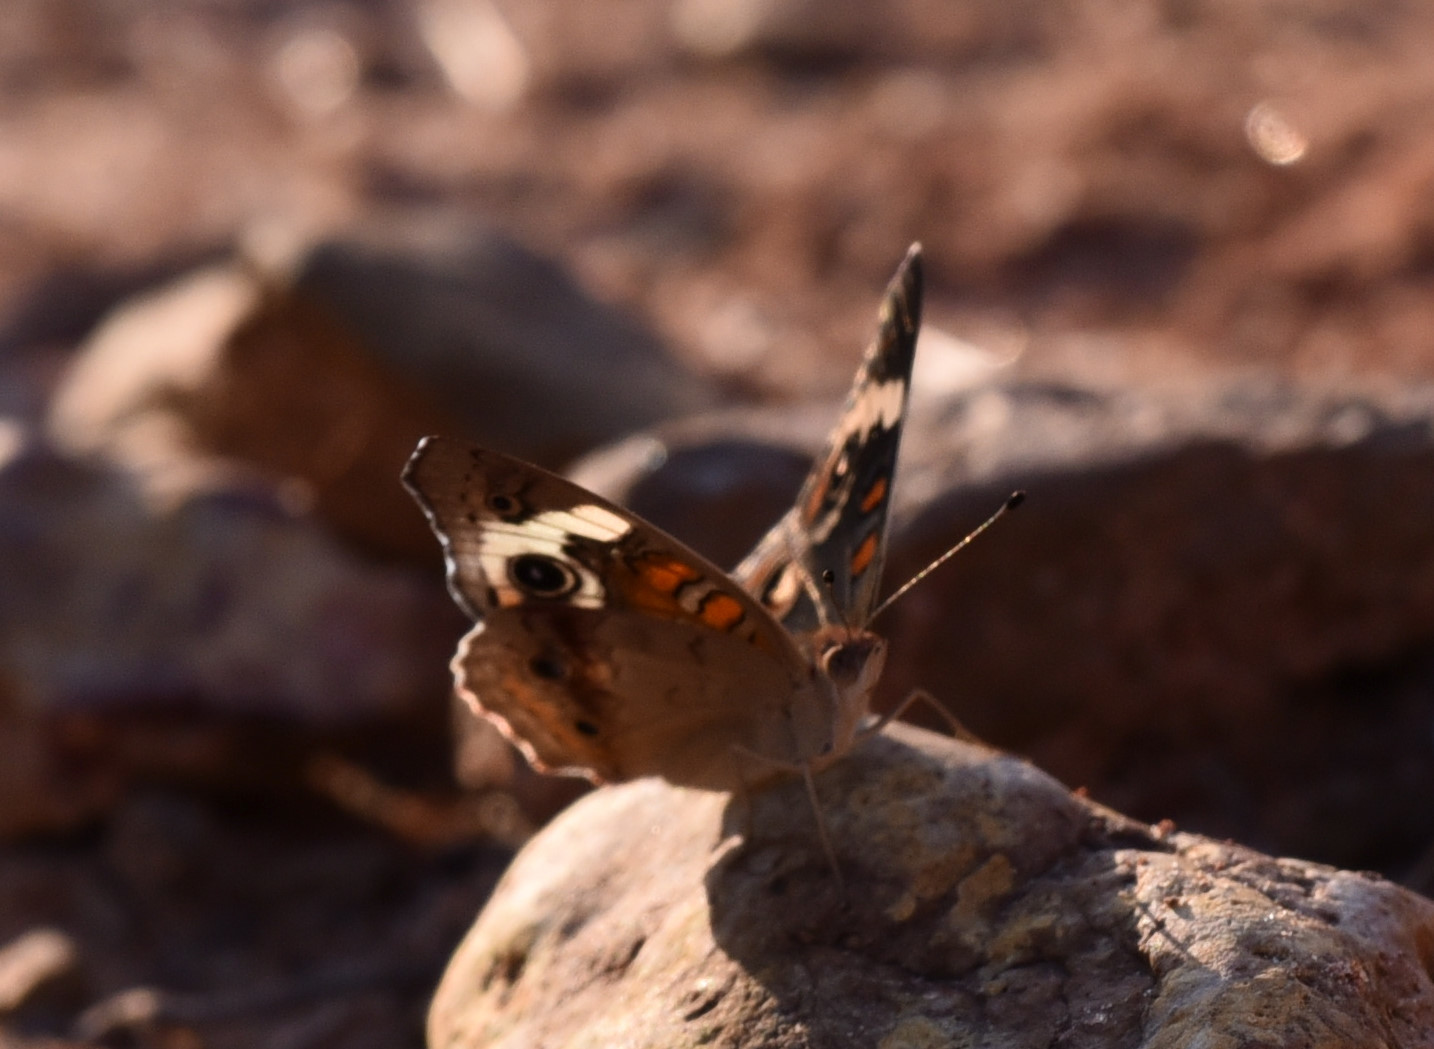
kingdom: Animalia
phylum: Arthropoda
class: Insecta
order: Lepidoptera
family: Nymphalidae
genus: Junonia
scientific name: Junonia coenia
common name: Common buckeye
